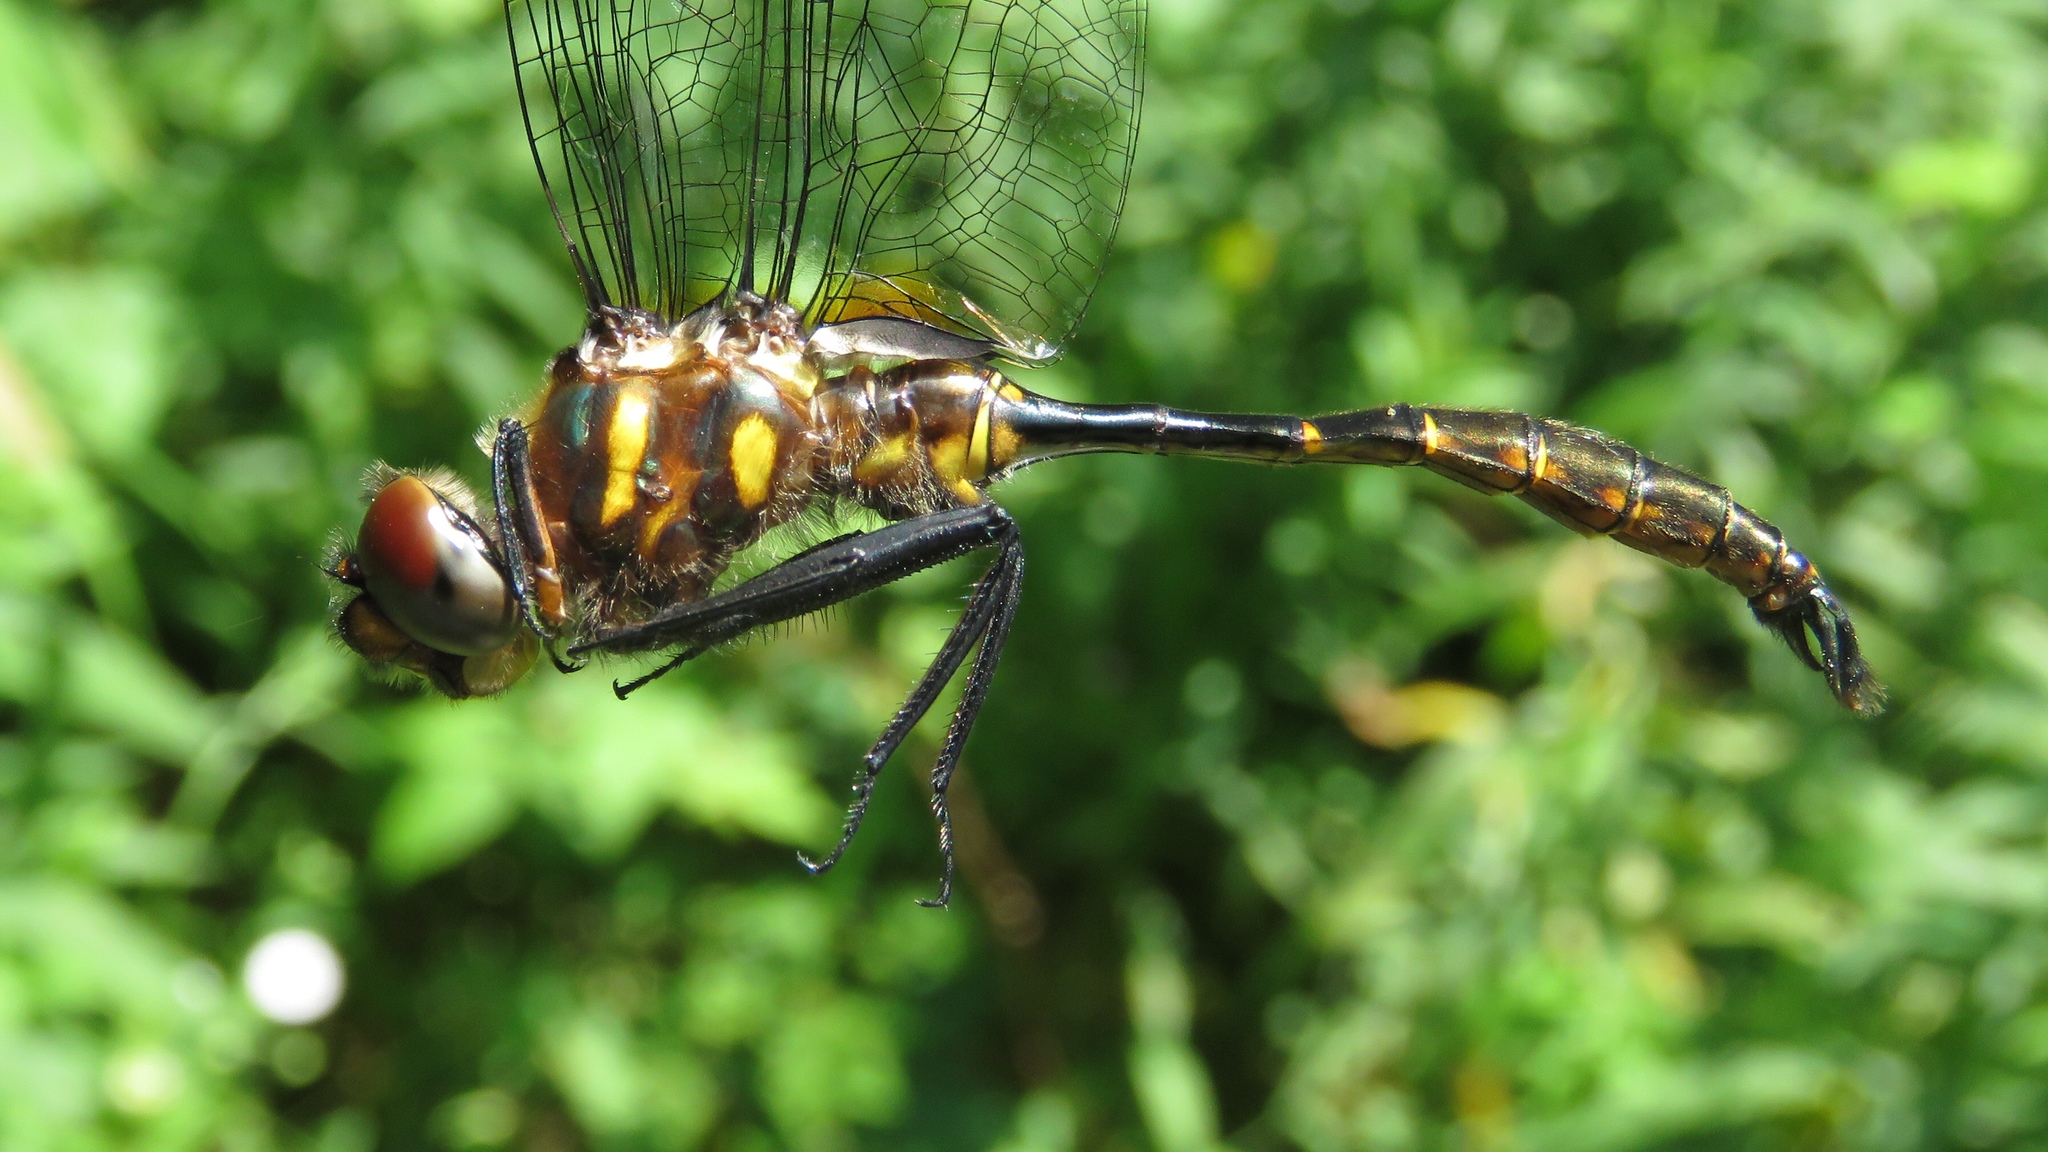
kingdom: Animalia
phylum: Arthropoda
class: Insecta
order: Odonata
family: Corduliidae
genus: Somatochlora
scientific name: Somatochlora walshii
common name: Brush-tipped emerald
